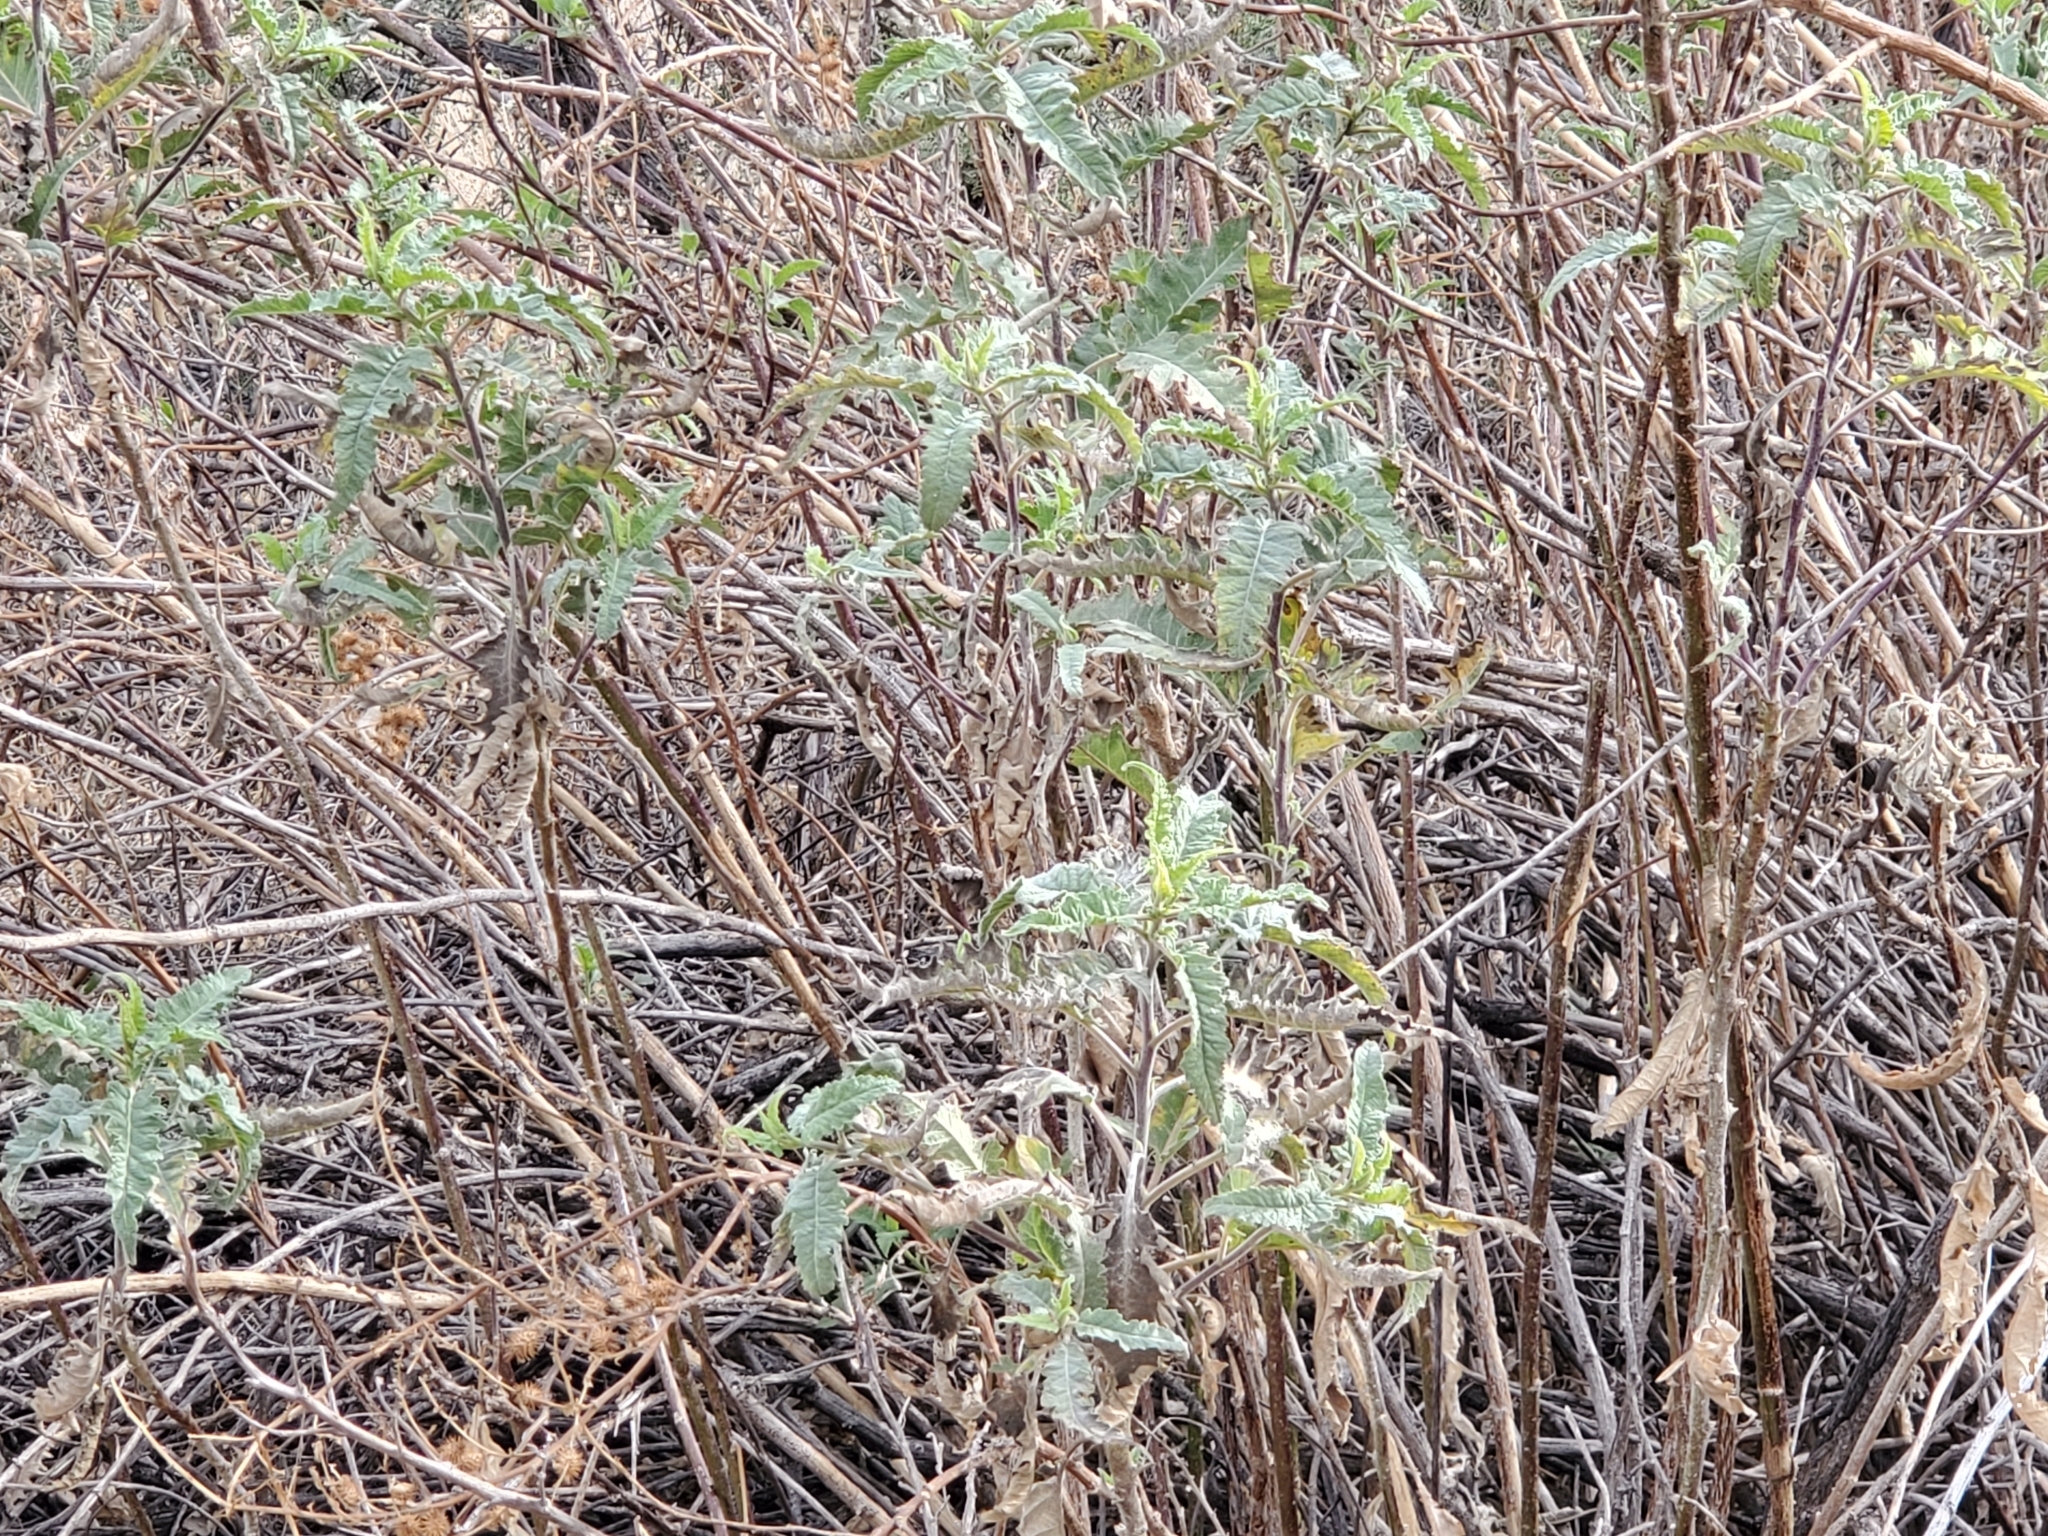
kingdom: Plantae
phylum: Tracheophyta
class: Magnoliopsida
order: Asterales
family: Asteraceae
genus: Ambrosia
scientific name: Ambrosia ambrosioides
